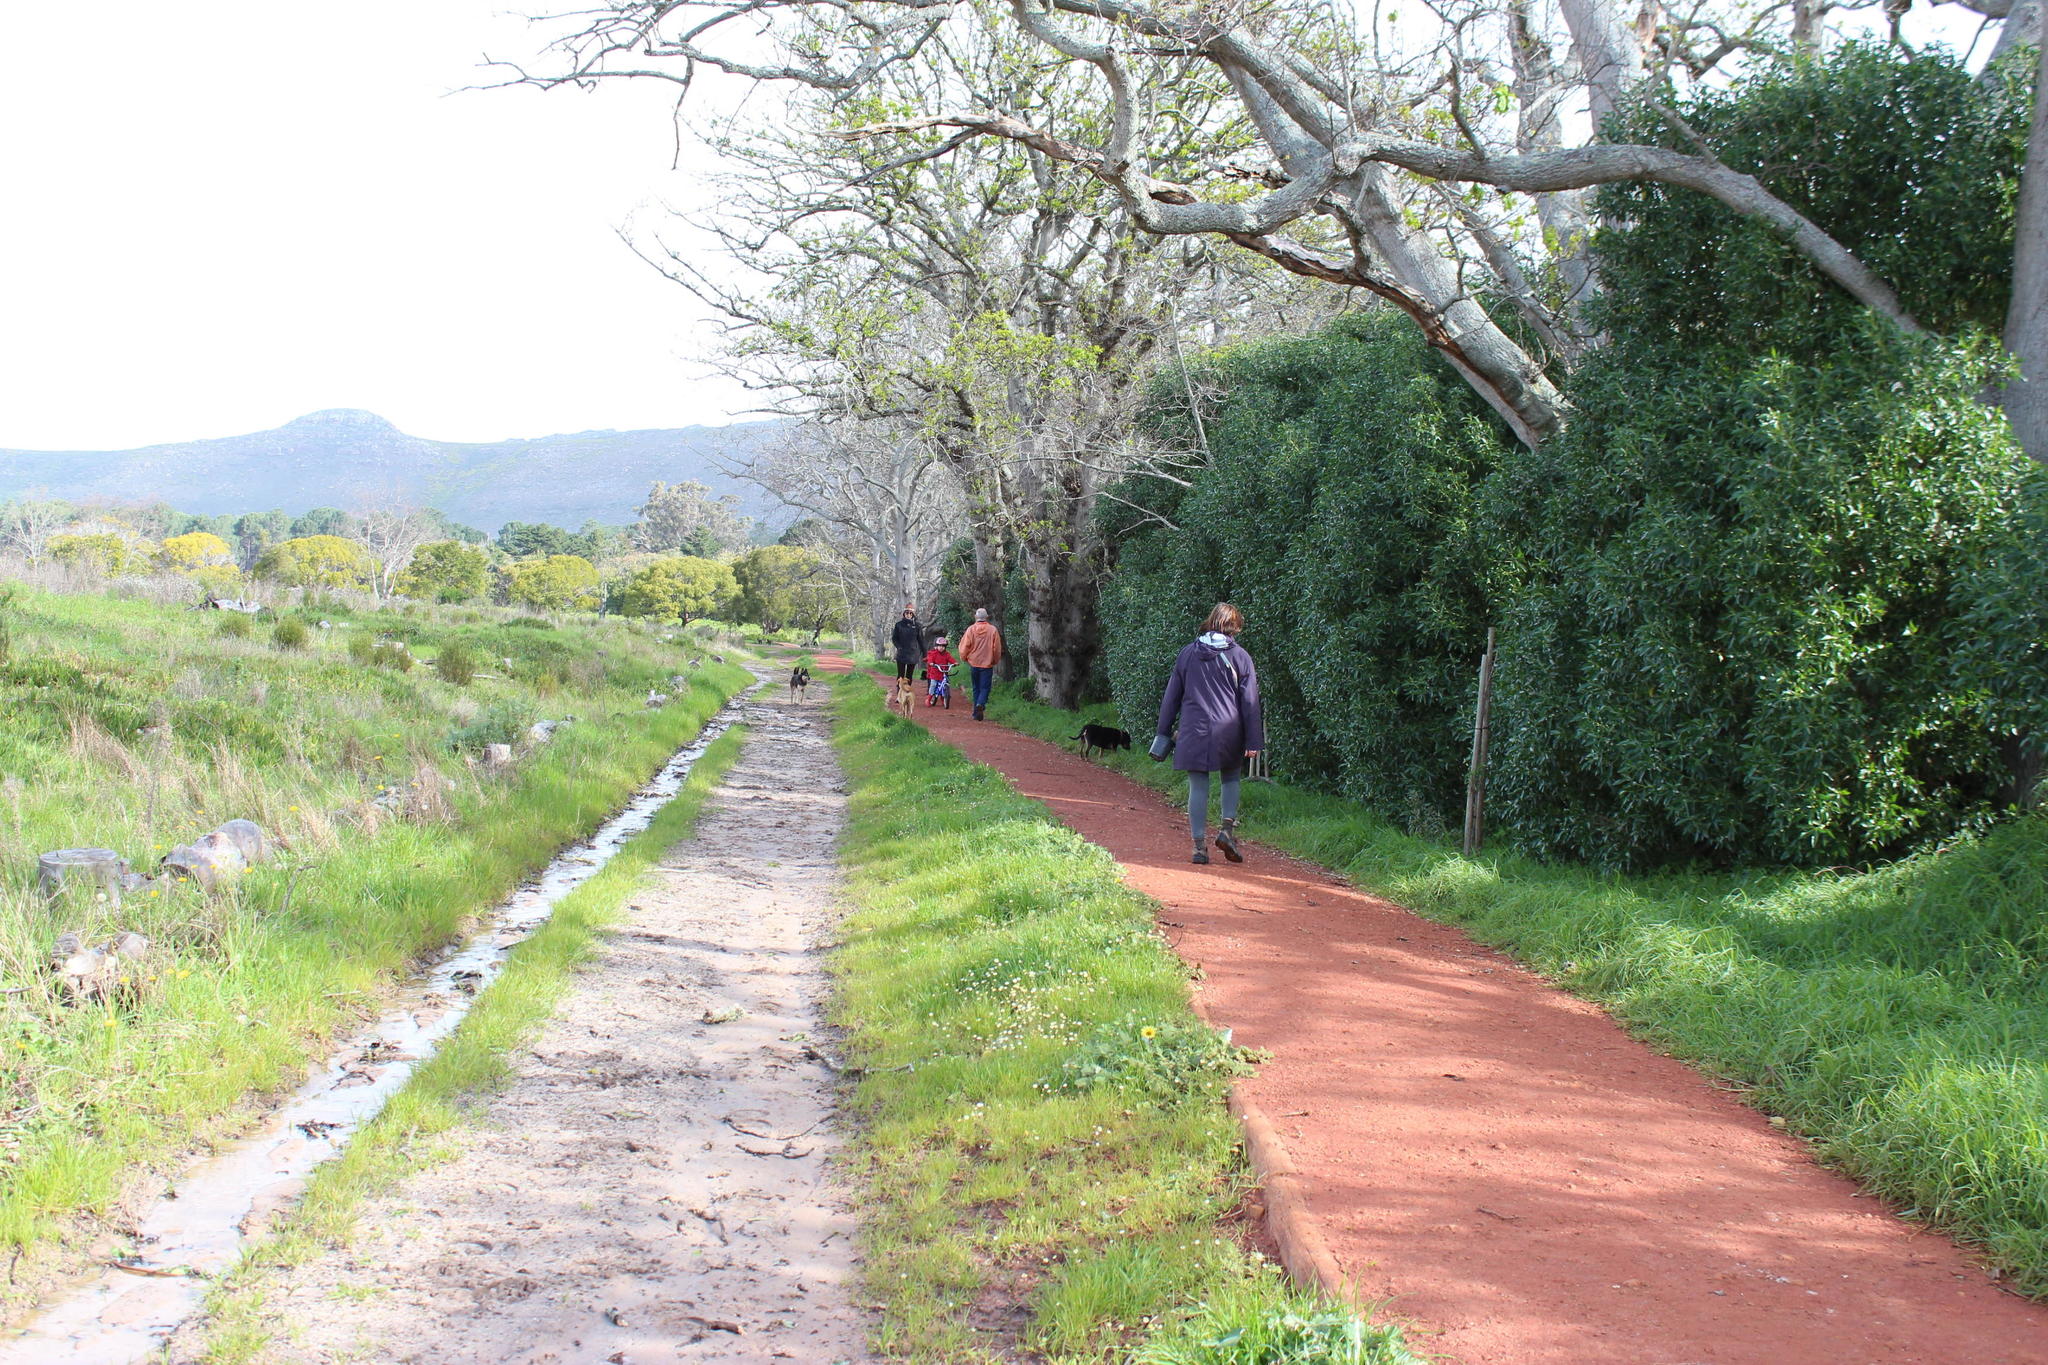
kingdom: Plantae
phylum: Tracheophyta
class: Magnoliopsida
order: Fagales
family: Fagaceae
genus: Quercus
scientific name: Quercus robur
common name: Pedunculate oak
